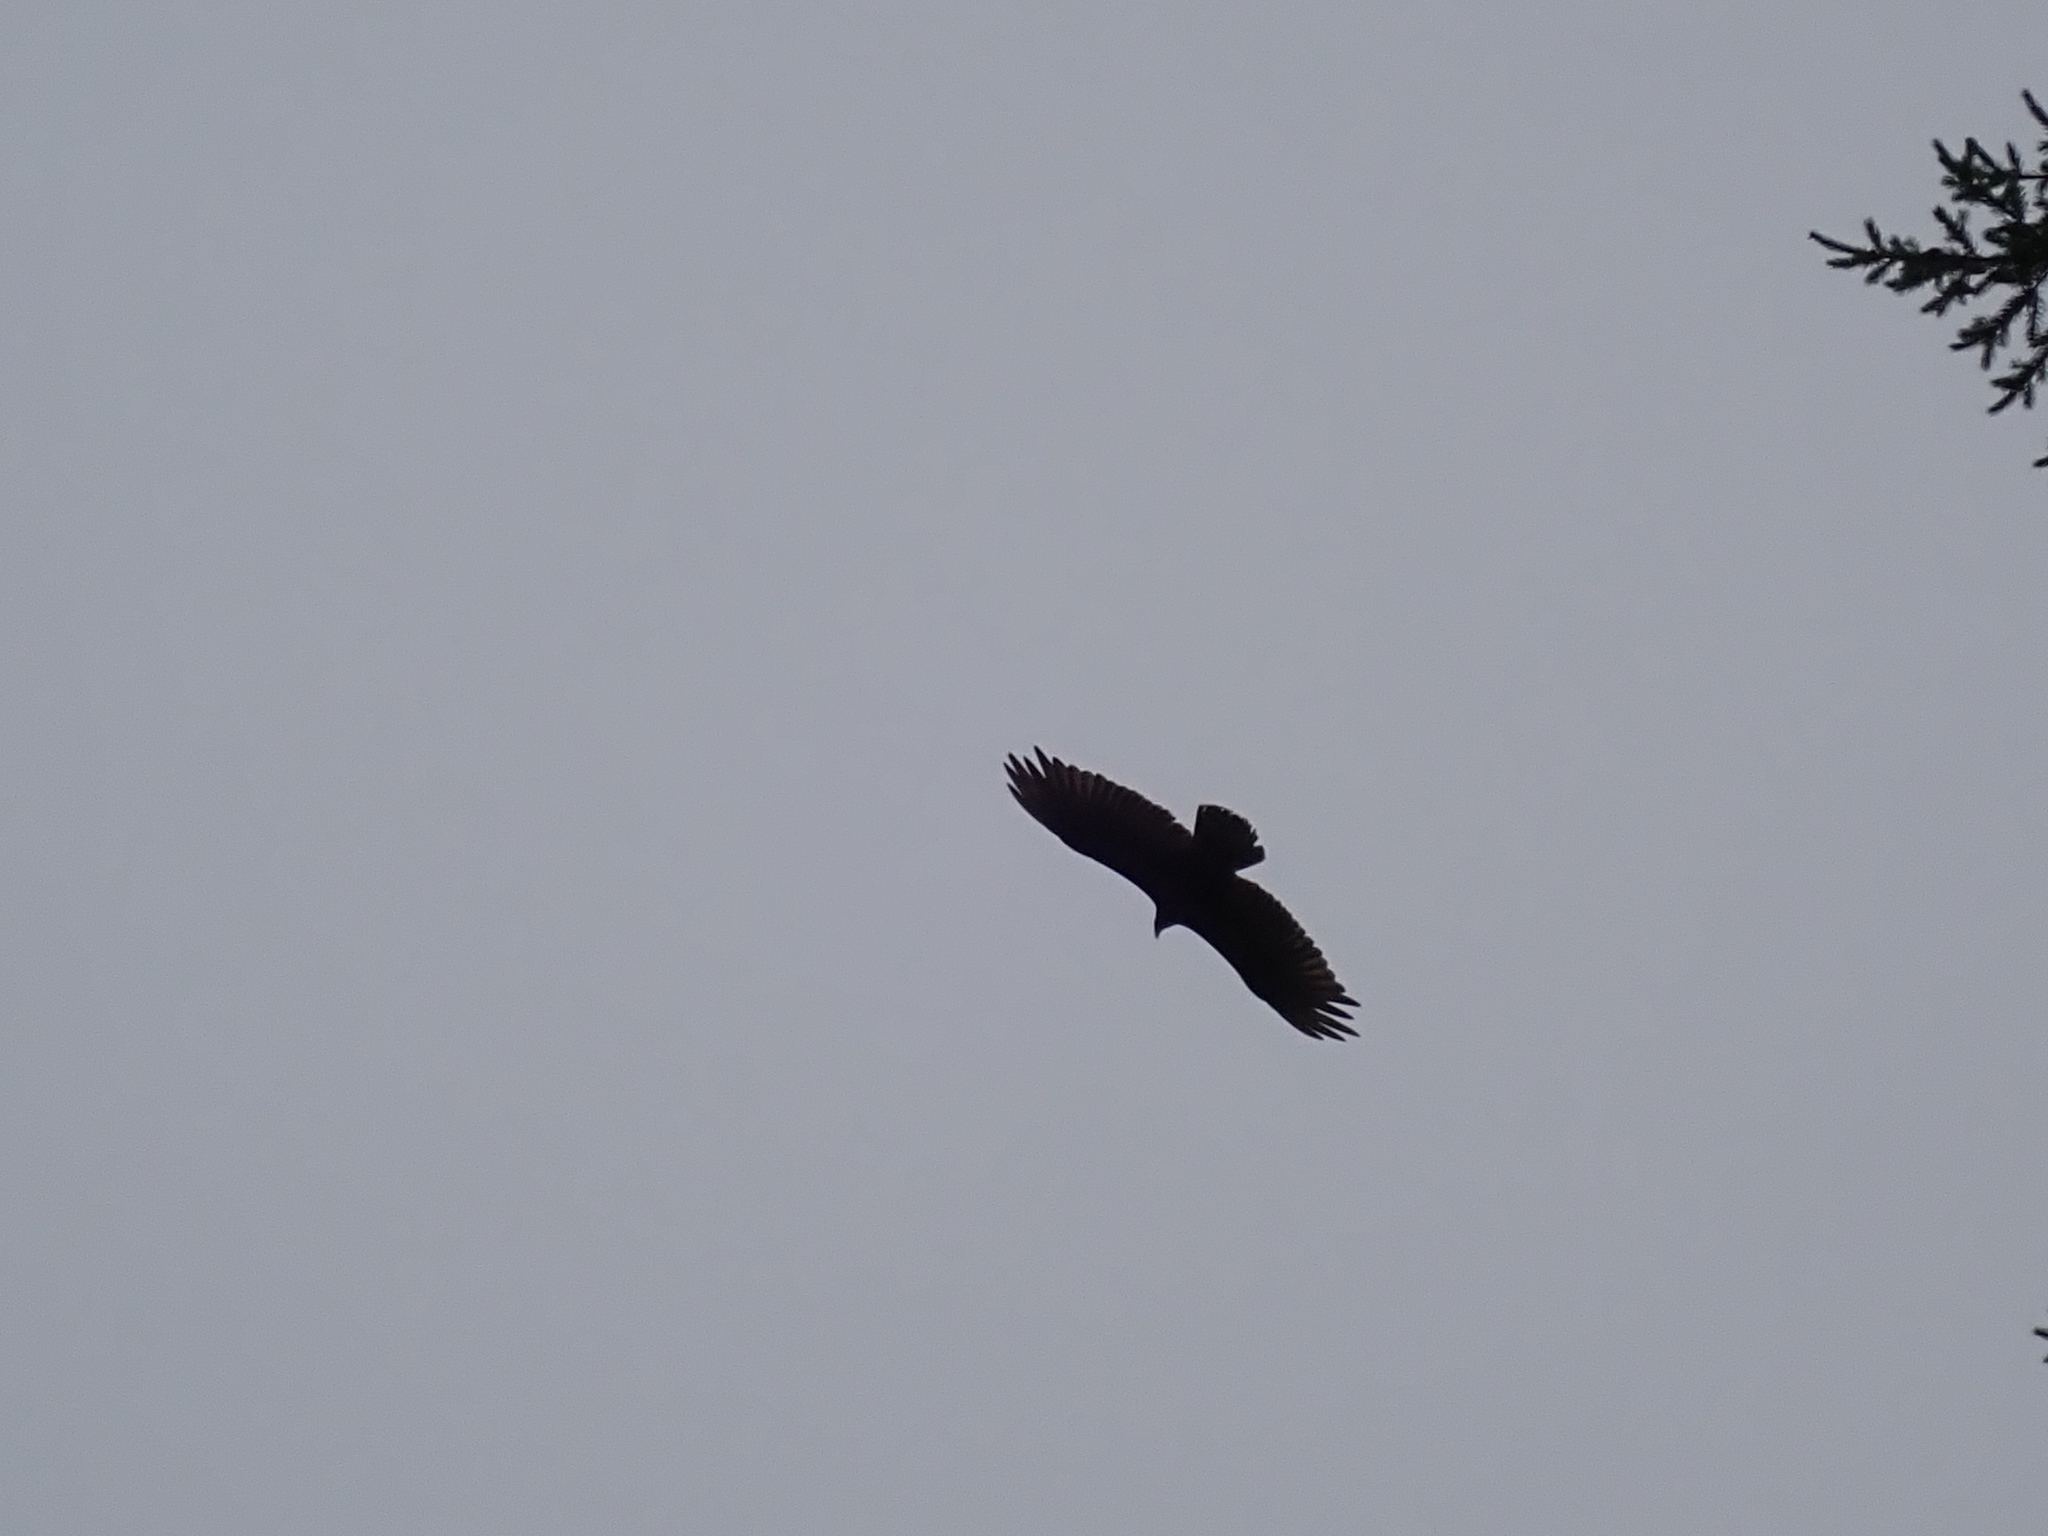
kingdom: Animalia
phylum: Chordata
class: Aves
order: Accipitriformes
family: Cathartidae
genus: Cathartes
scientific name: Cathartes aura
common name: Turkey vulture
